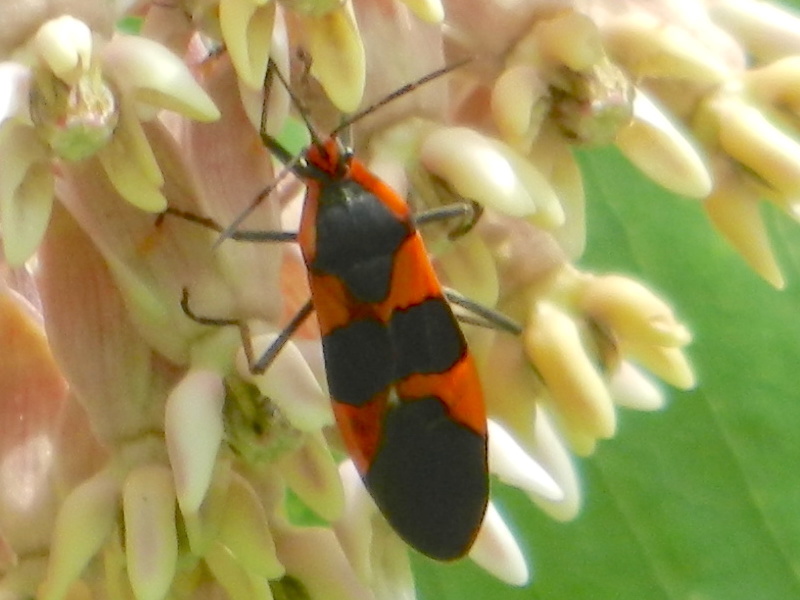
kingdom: Animalia
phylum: Arthropoda
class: Insecta
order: Hemiptera
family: Lygaeidae
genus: Oncopeltus
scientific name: Oncopeltus fasciatus
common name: Large milkweed bug
